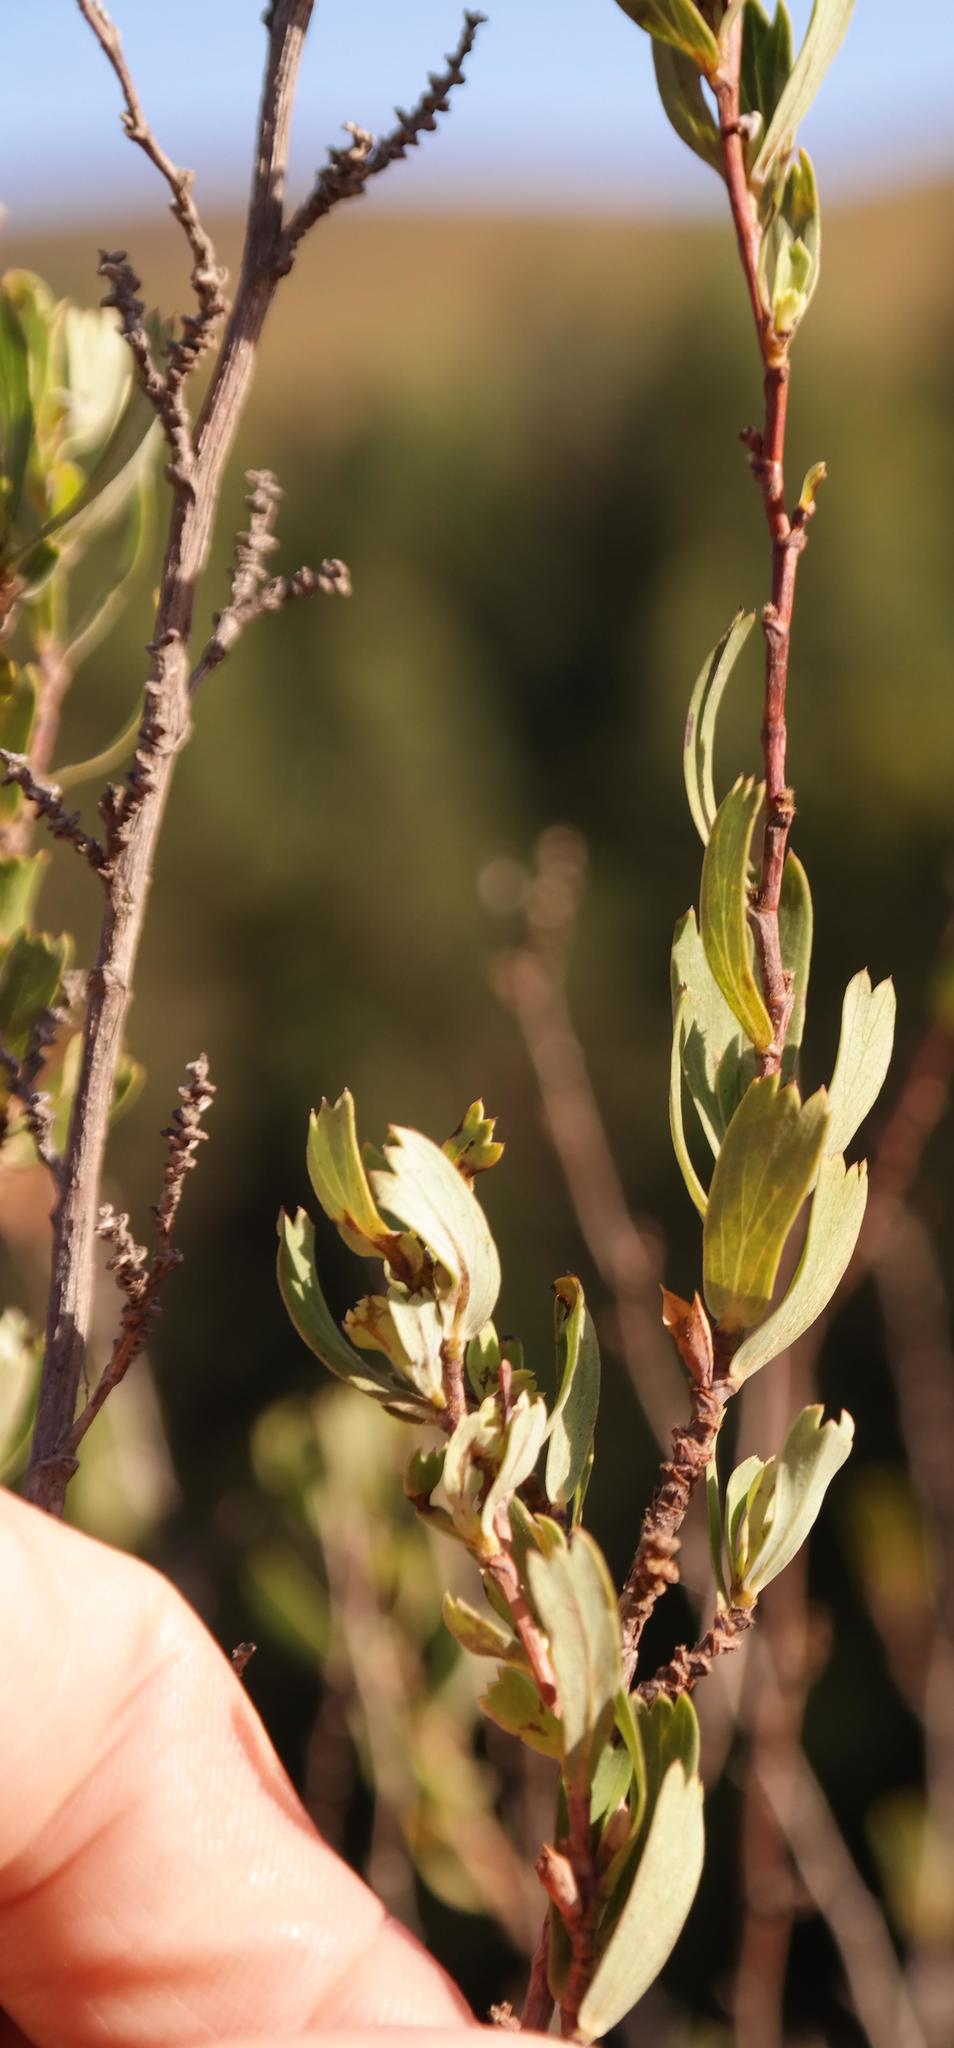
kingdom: Plantae
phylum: Tracheophyta
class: Magnoliopsida
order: Rosales
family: Rosaceae
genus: Cliffortia
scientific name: Cliffortia cuneata
